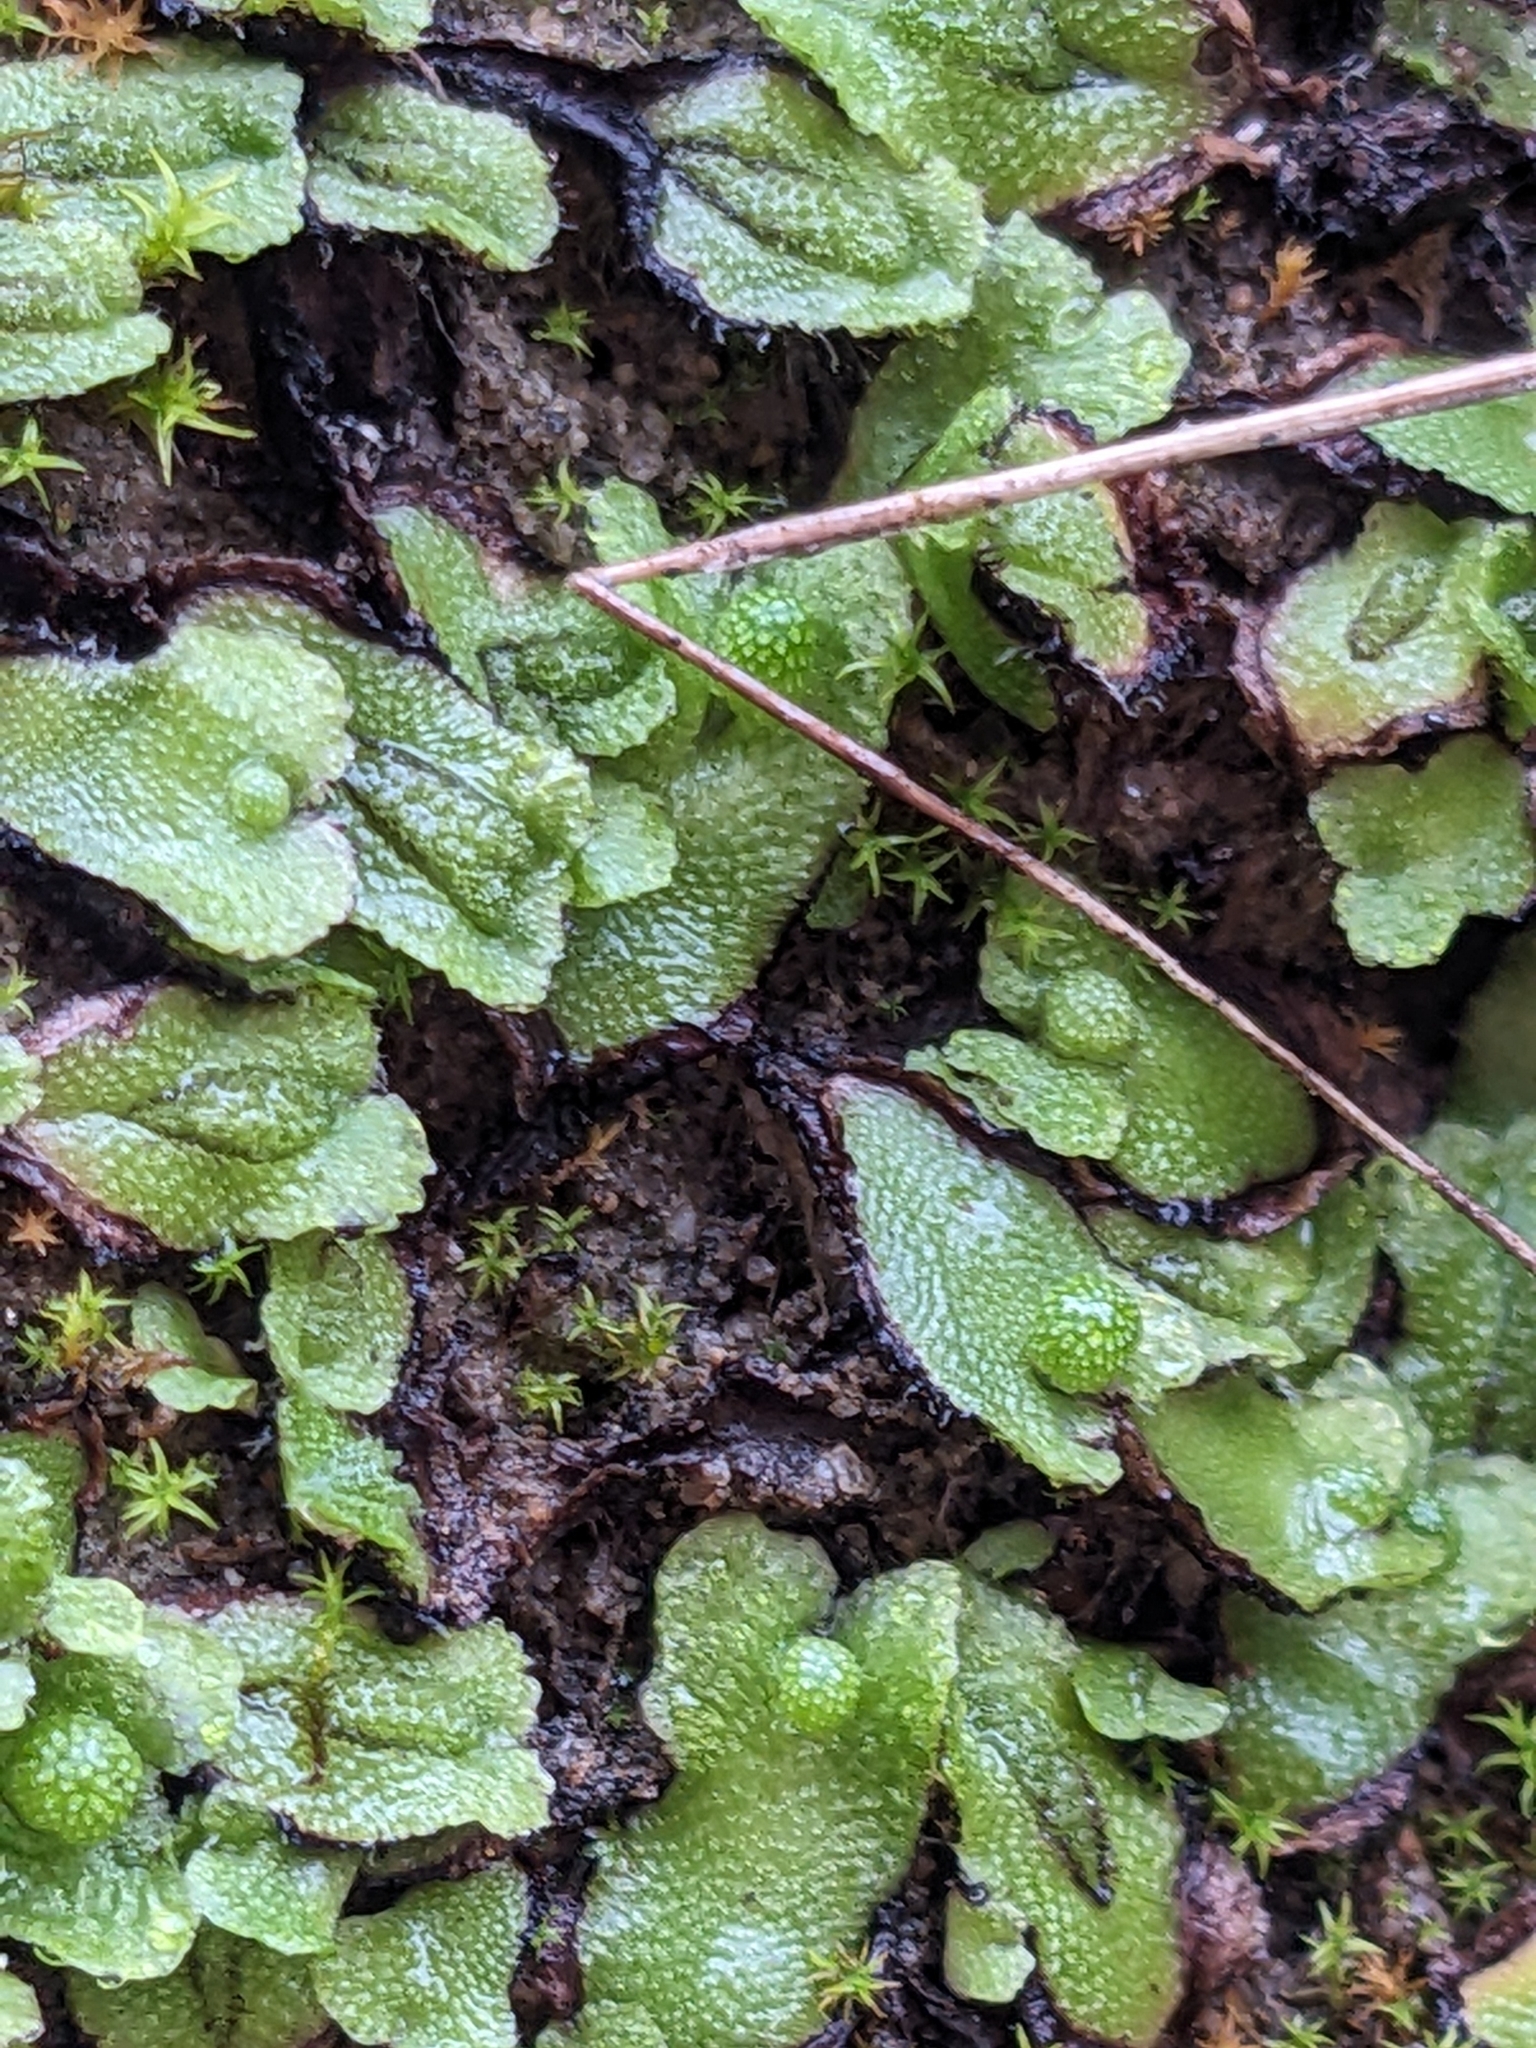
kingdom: Plantae
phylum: Marchantiophyta
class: Marchantiopsida
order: Marchantiales
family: Aytoniaceae
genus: Asterella
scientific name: Asterella californica
